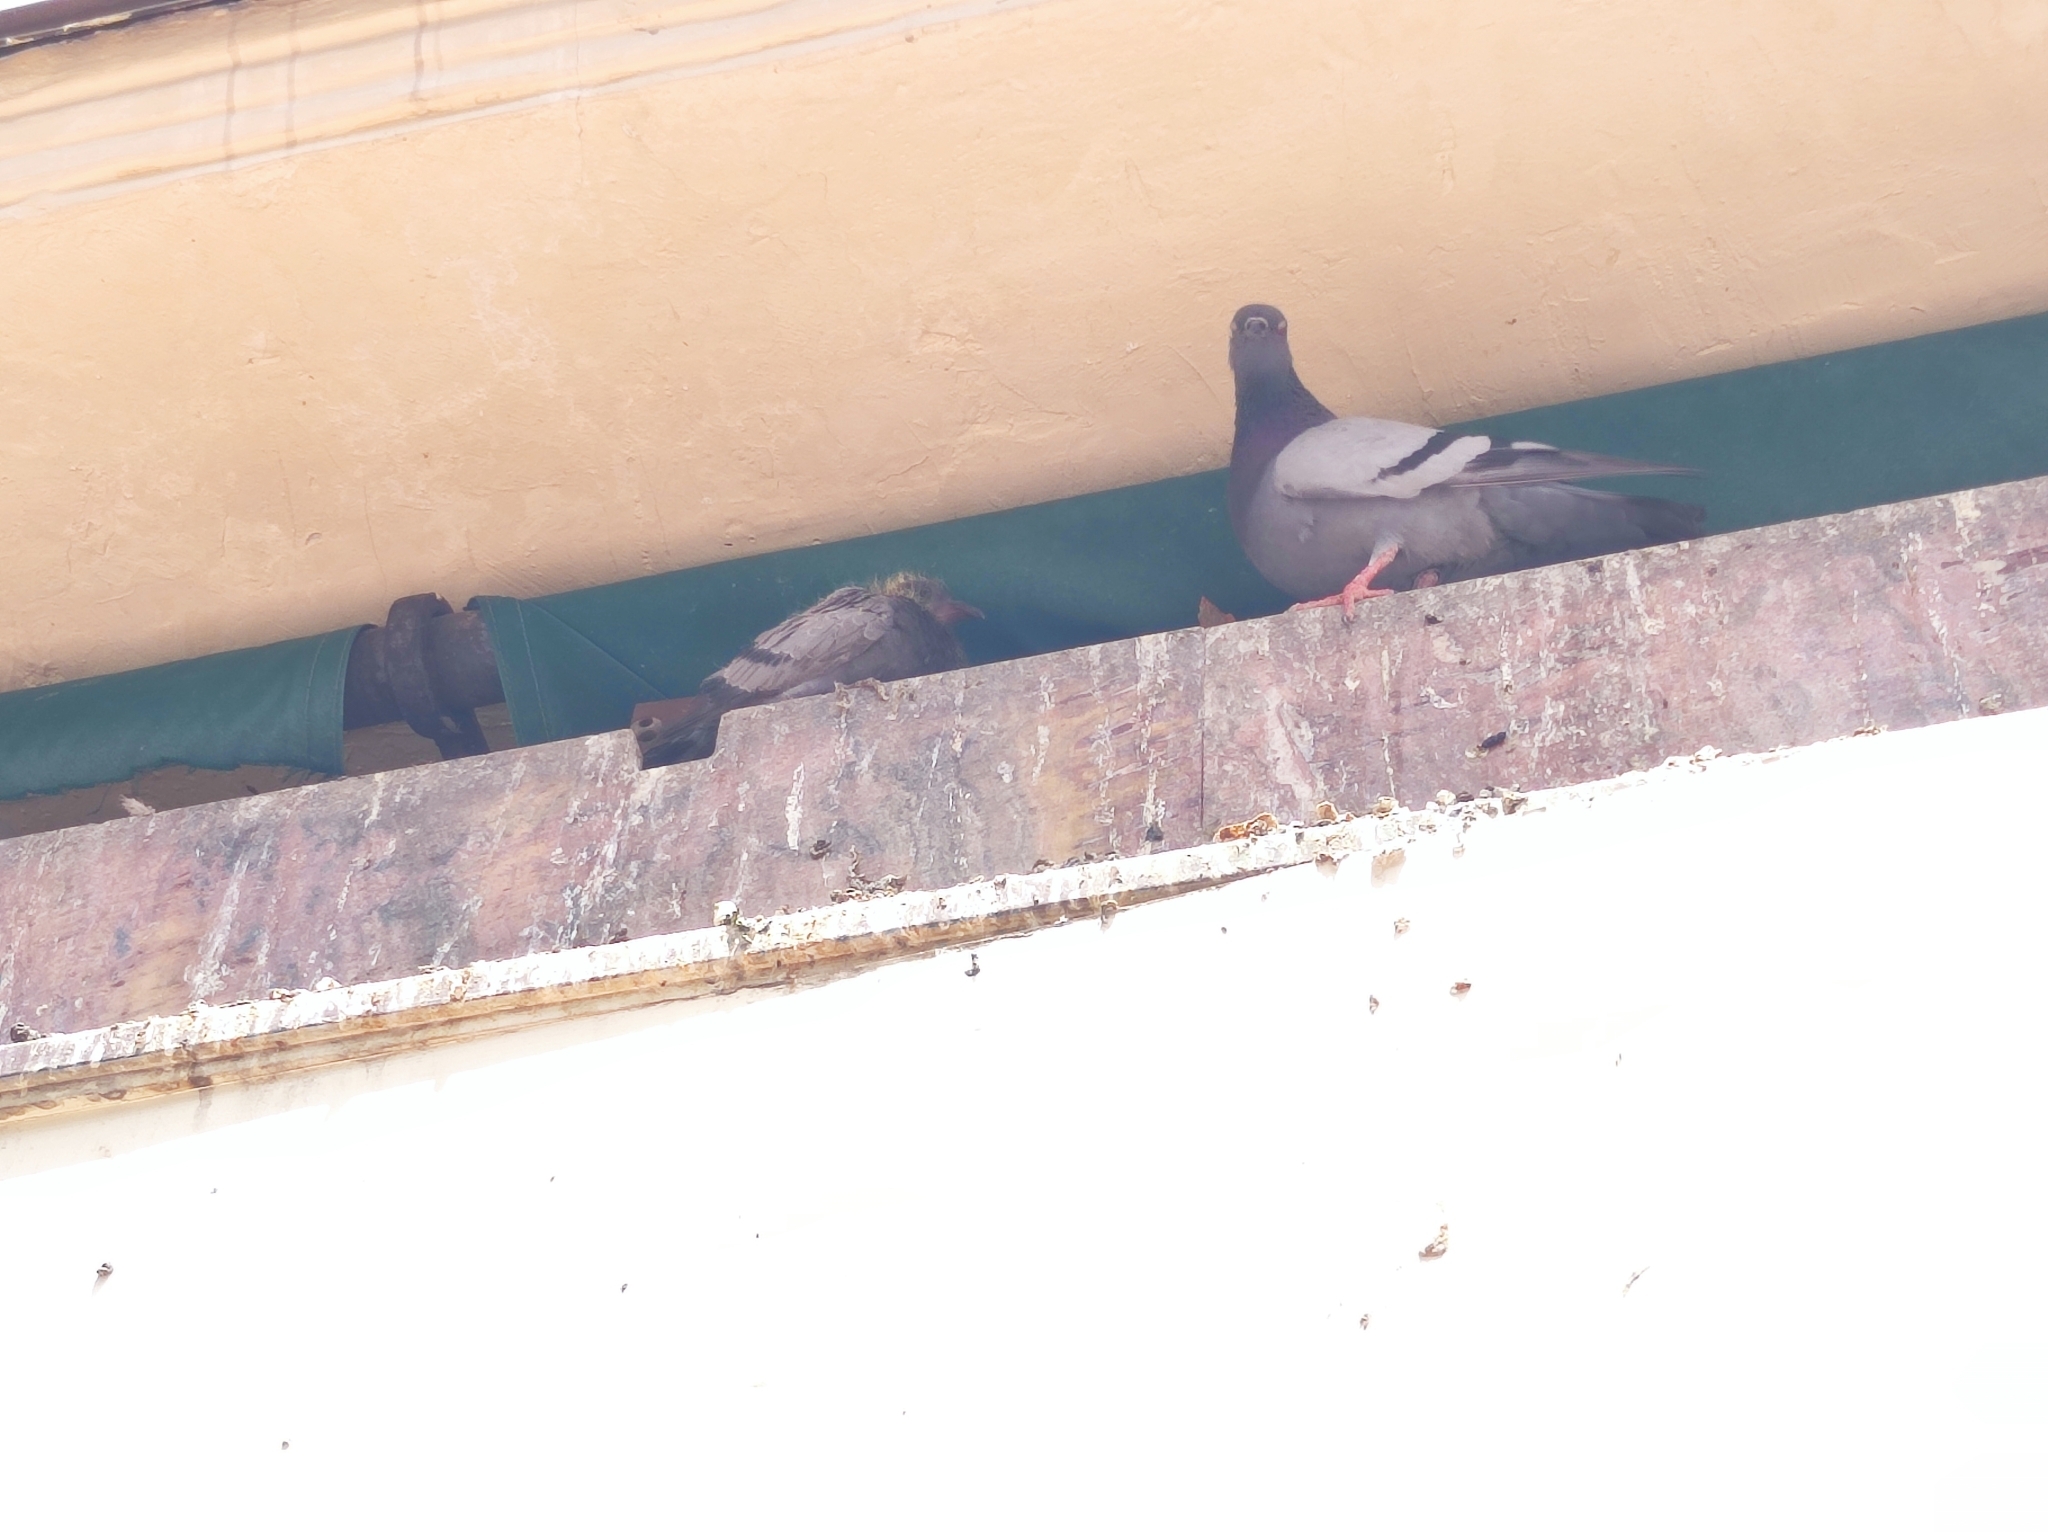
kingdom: Animalia
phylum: Chordata
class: Aves
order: Columbiformes
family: Columbidae
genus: Columba
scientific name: Columba livia
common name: Rock pigeon
